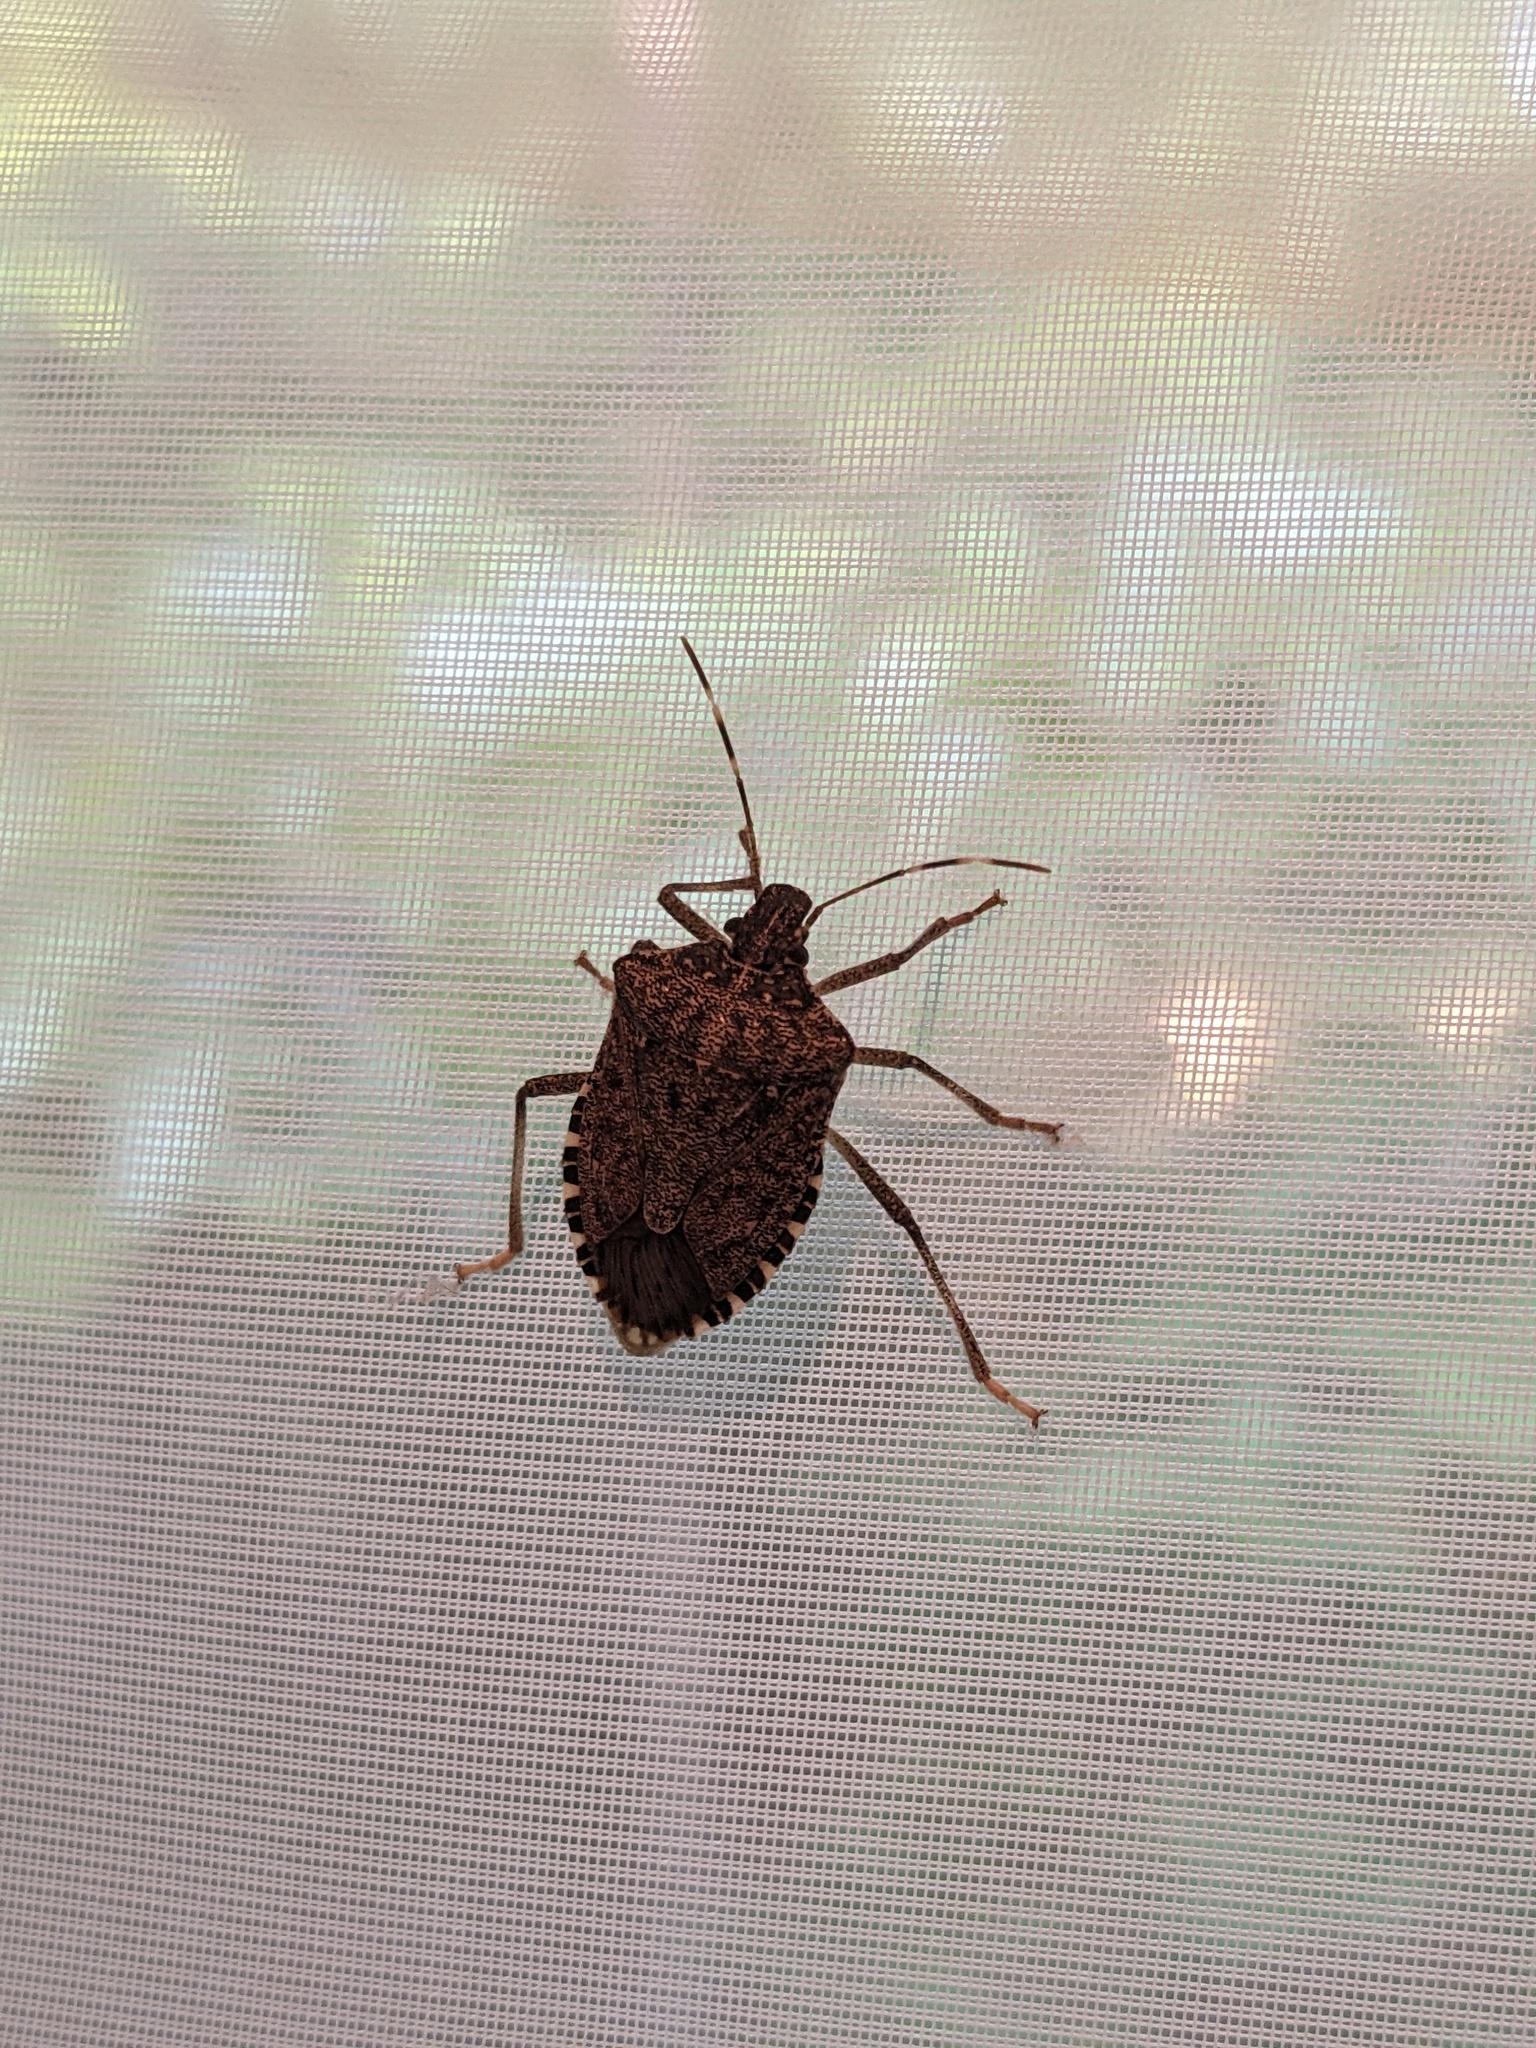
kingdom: Animalia
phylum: Arthropoda
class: Insecta
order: Hemiptera
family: Pentatomidae
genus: Halyomorpha
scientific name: Halyomorpha halys
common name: Brown marmorated stink bug
